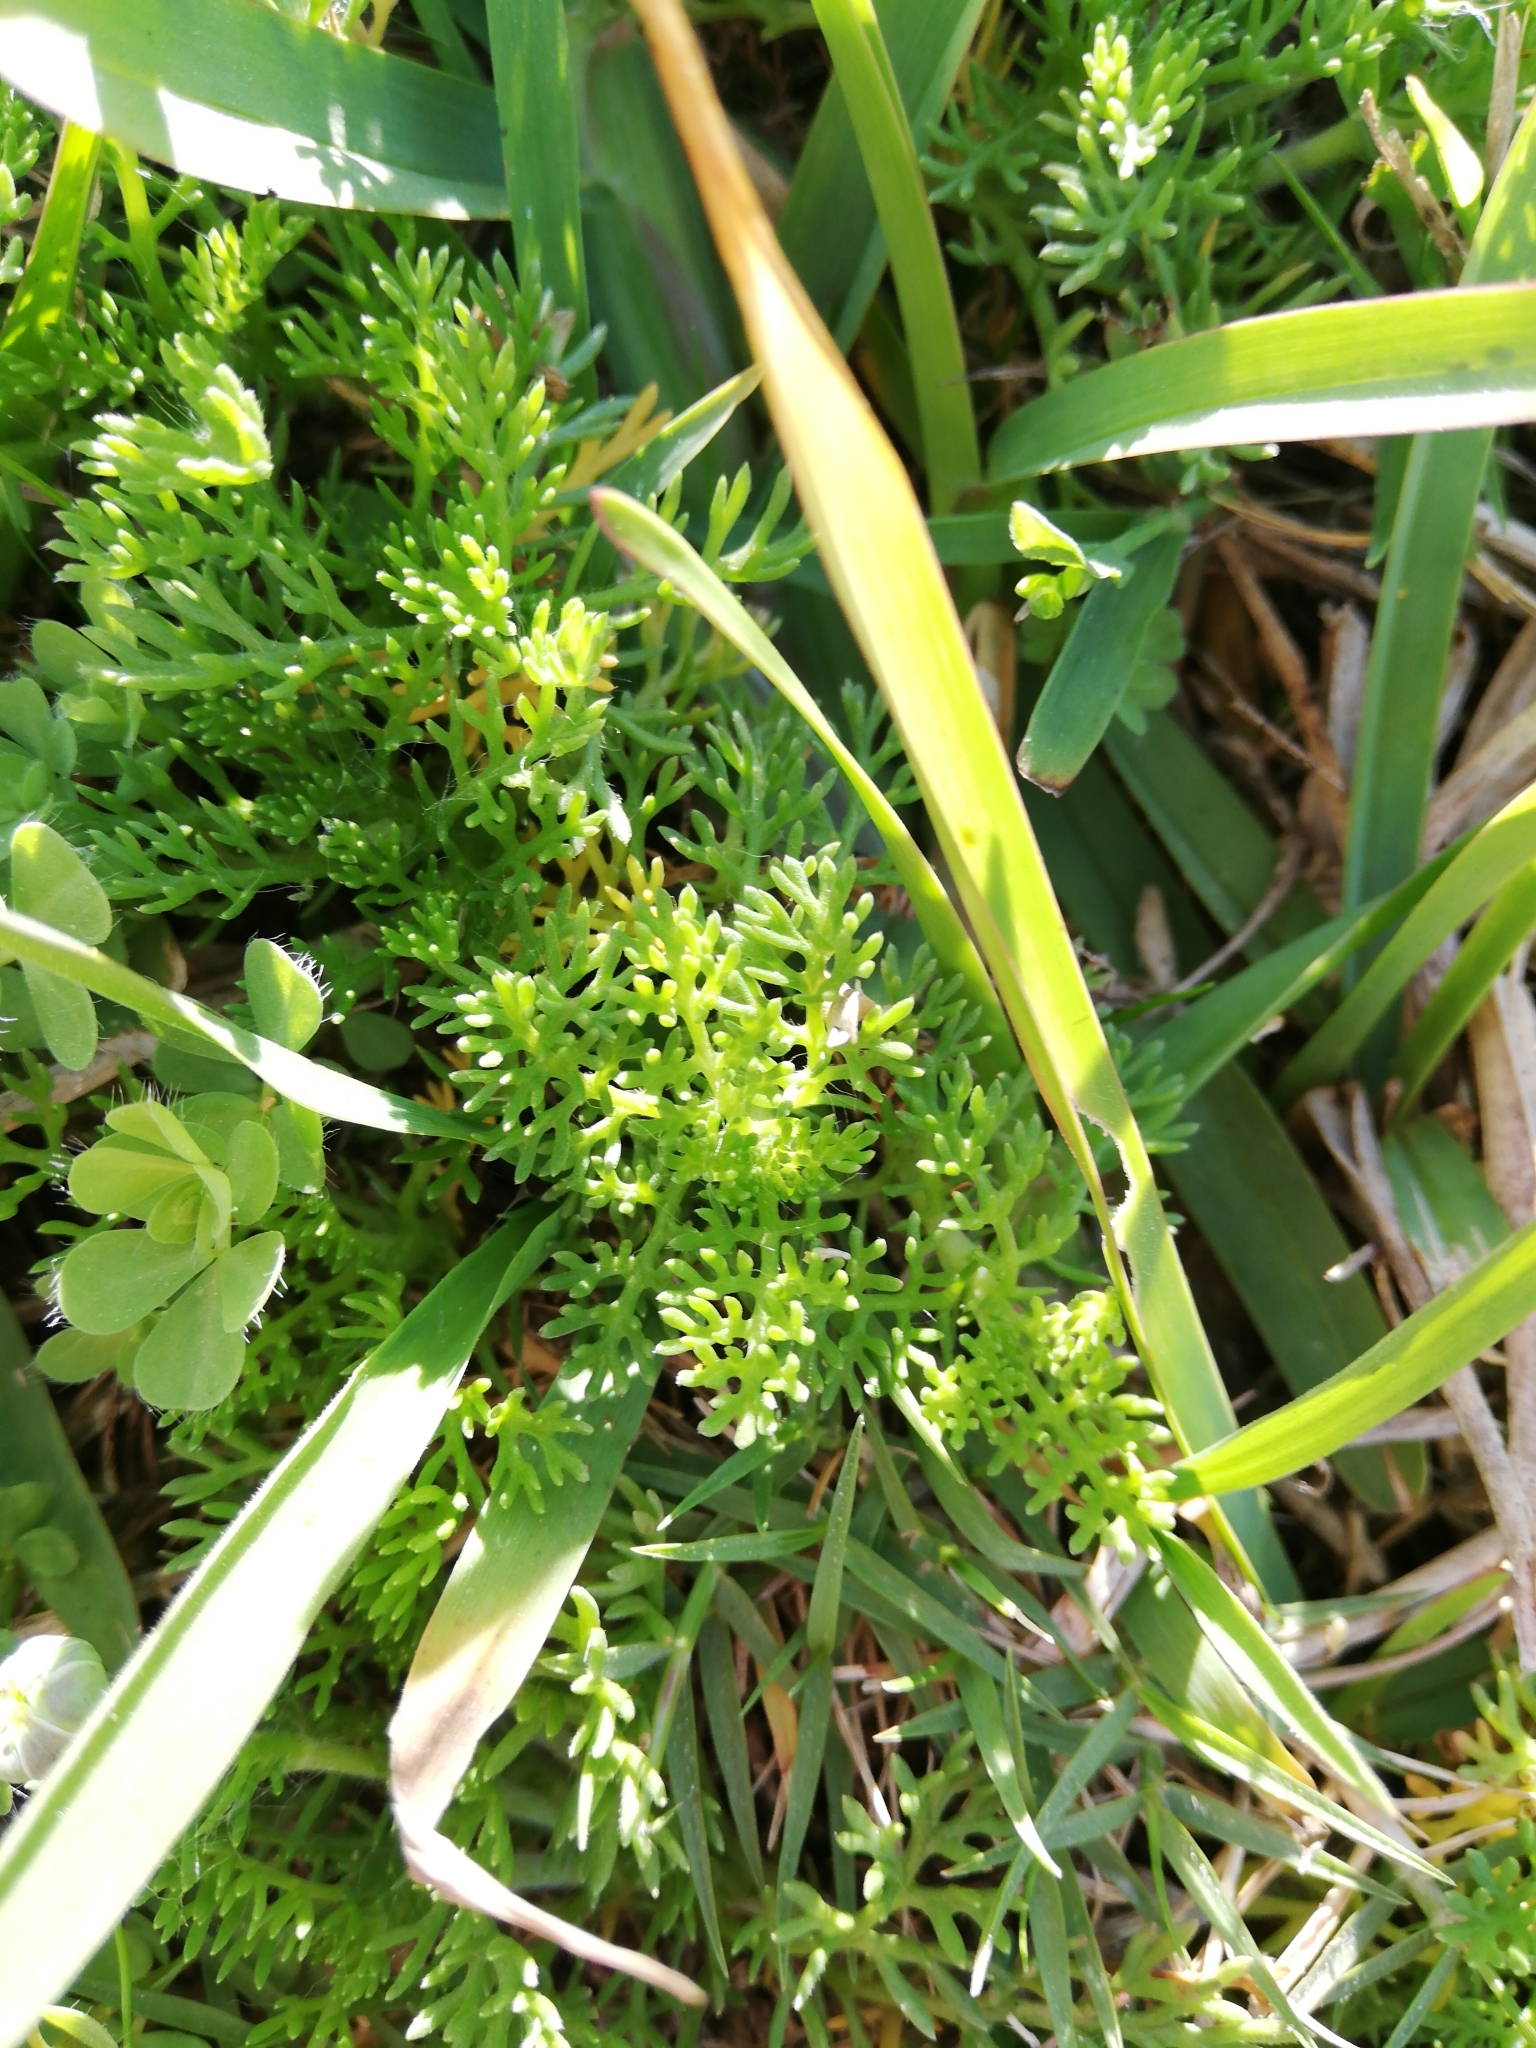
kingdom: Plantae
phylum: Tracheophyta
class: Magnoliopsida
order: Asterales
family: Asteraceae
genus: Cotula
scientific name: Cotula discolor
